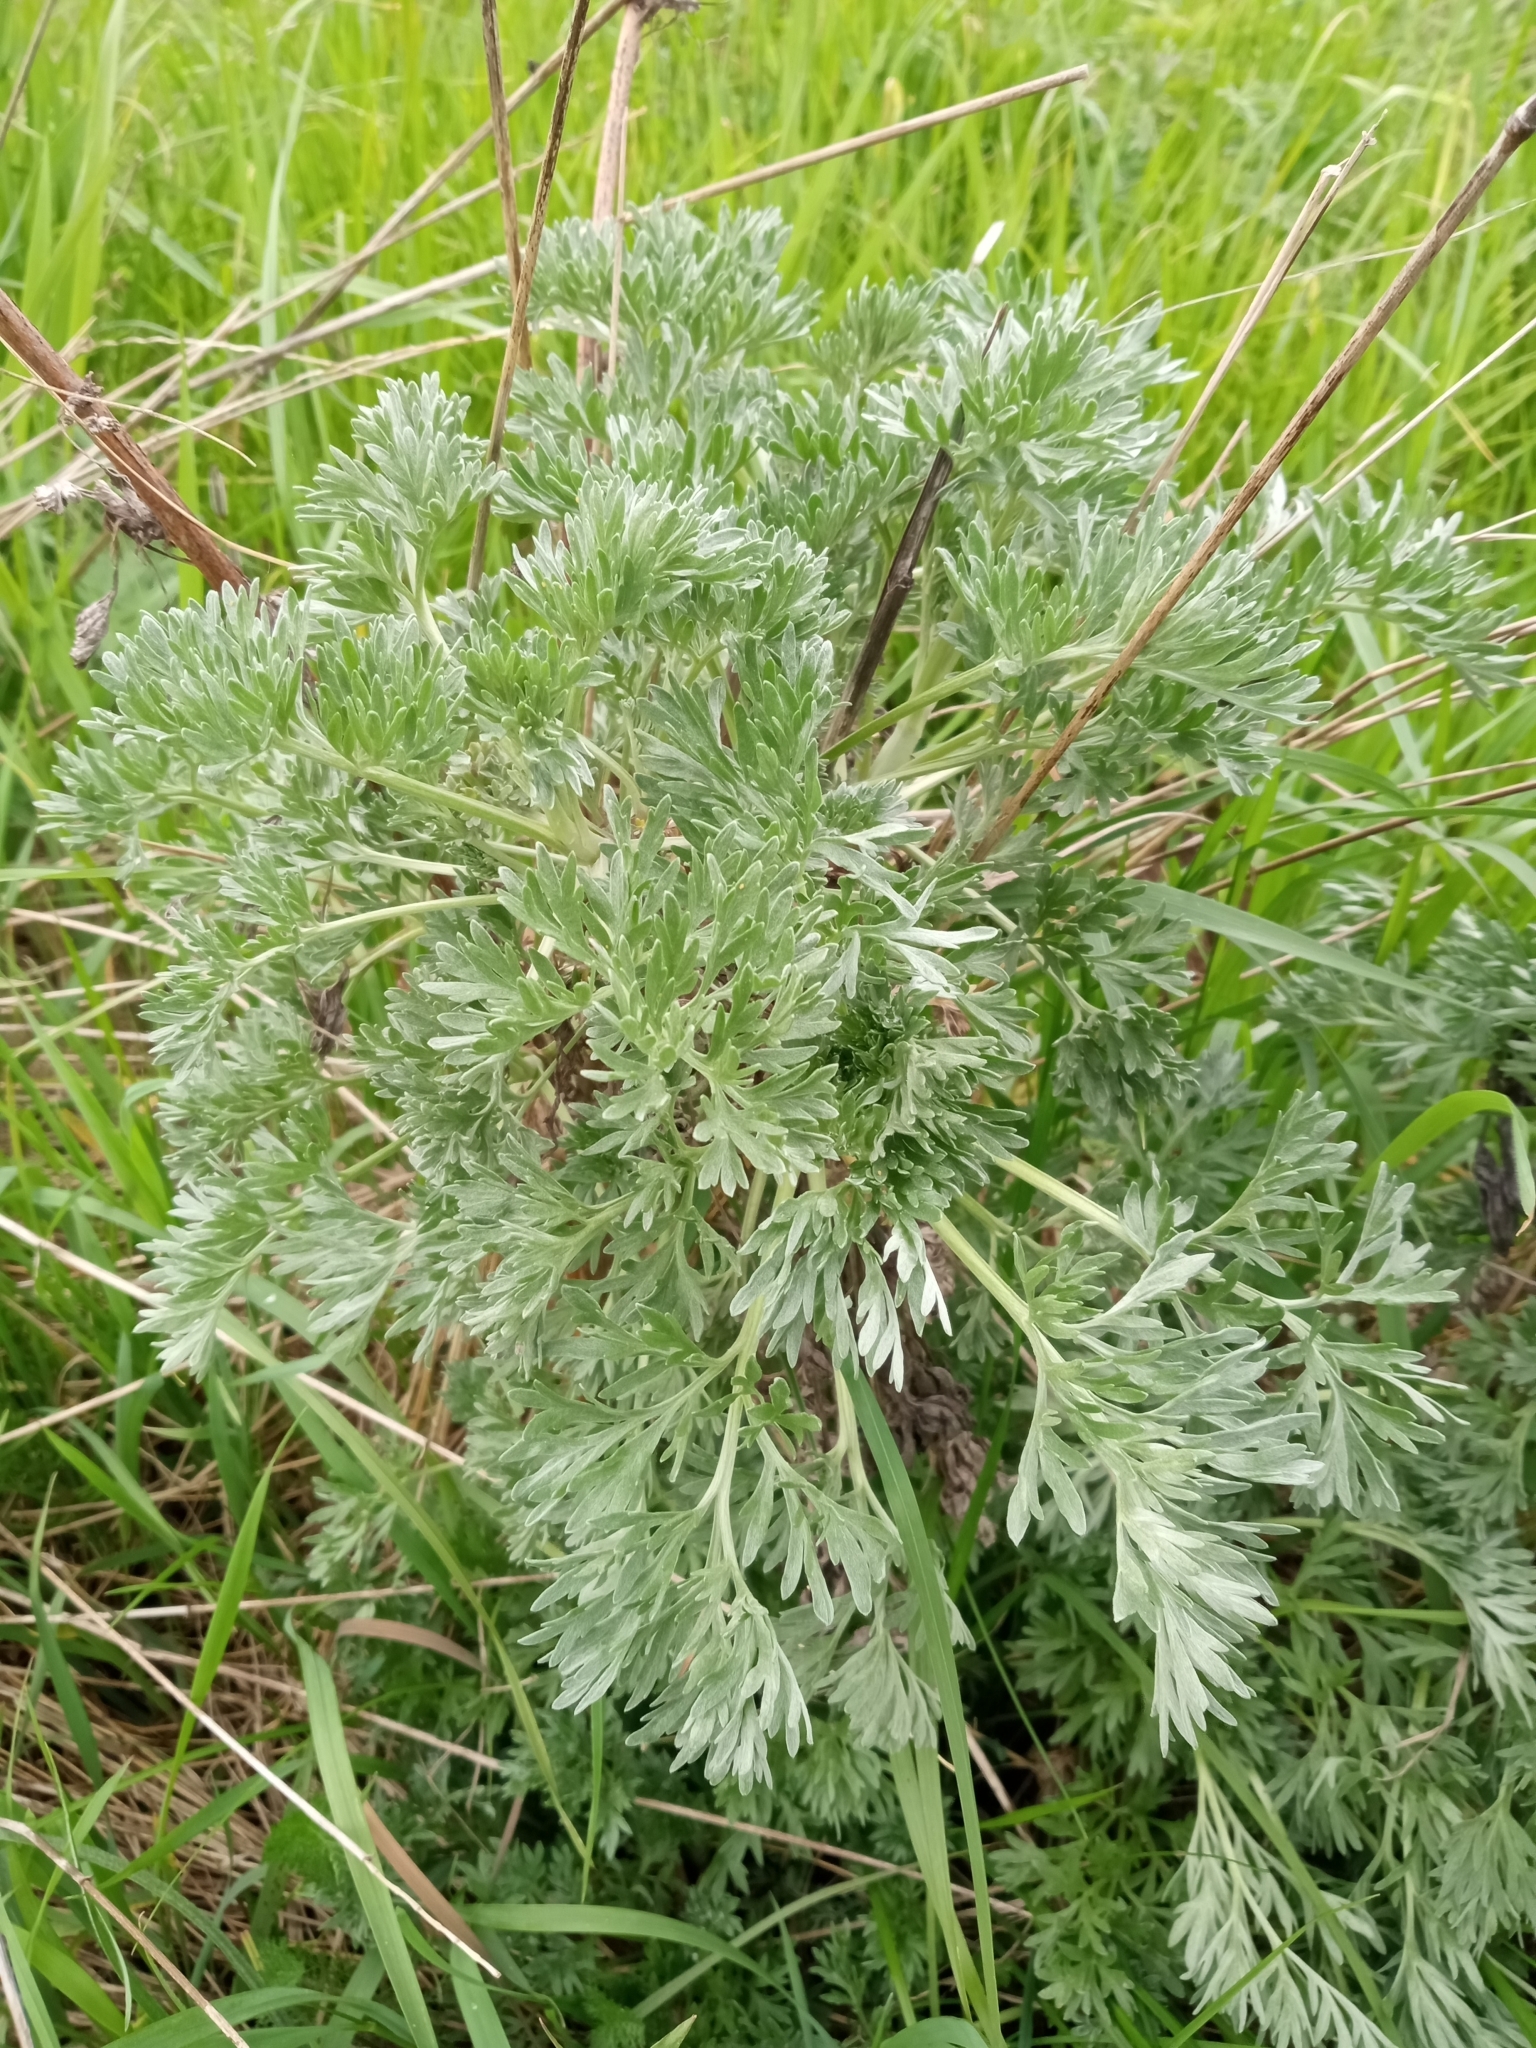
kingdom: Plantae
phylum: Tracheophyta
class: Magnoliopsida
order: Asterales
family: Asteraceae
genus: Artemisia
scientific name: Artemisia absinthium
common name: Wormwood
